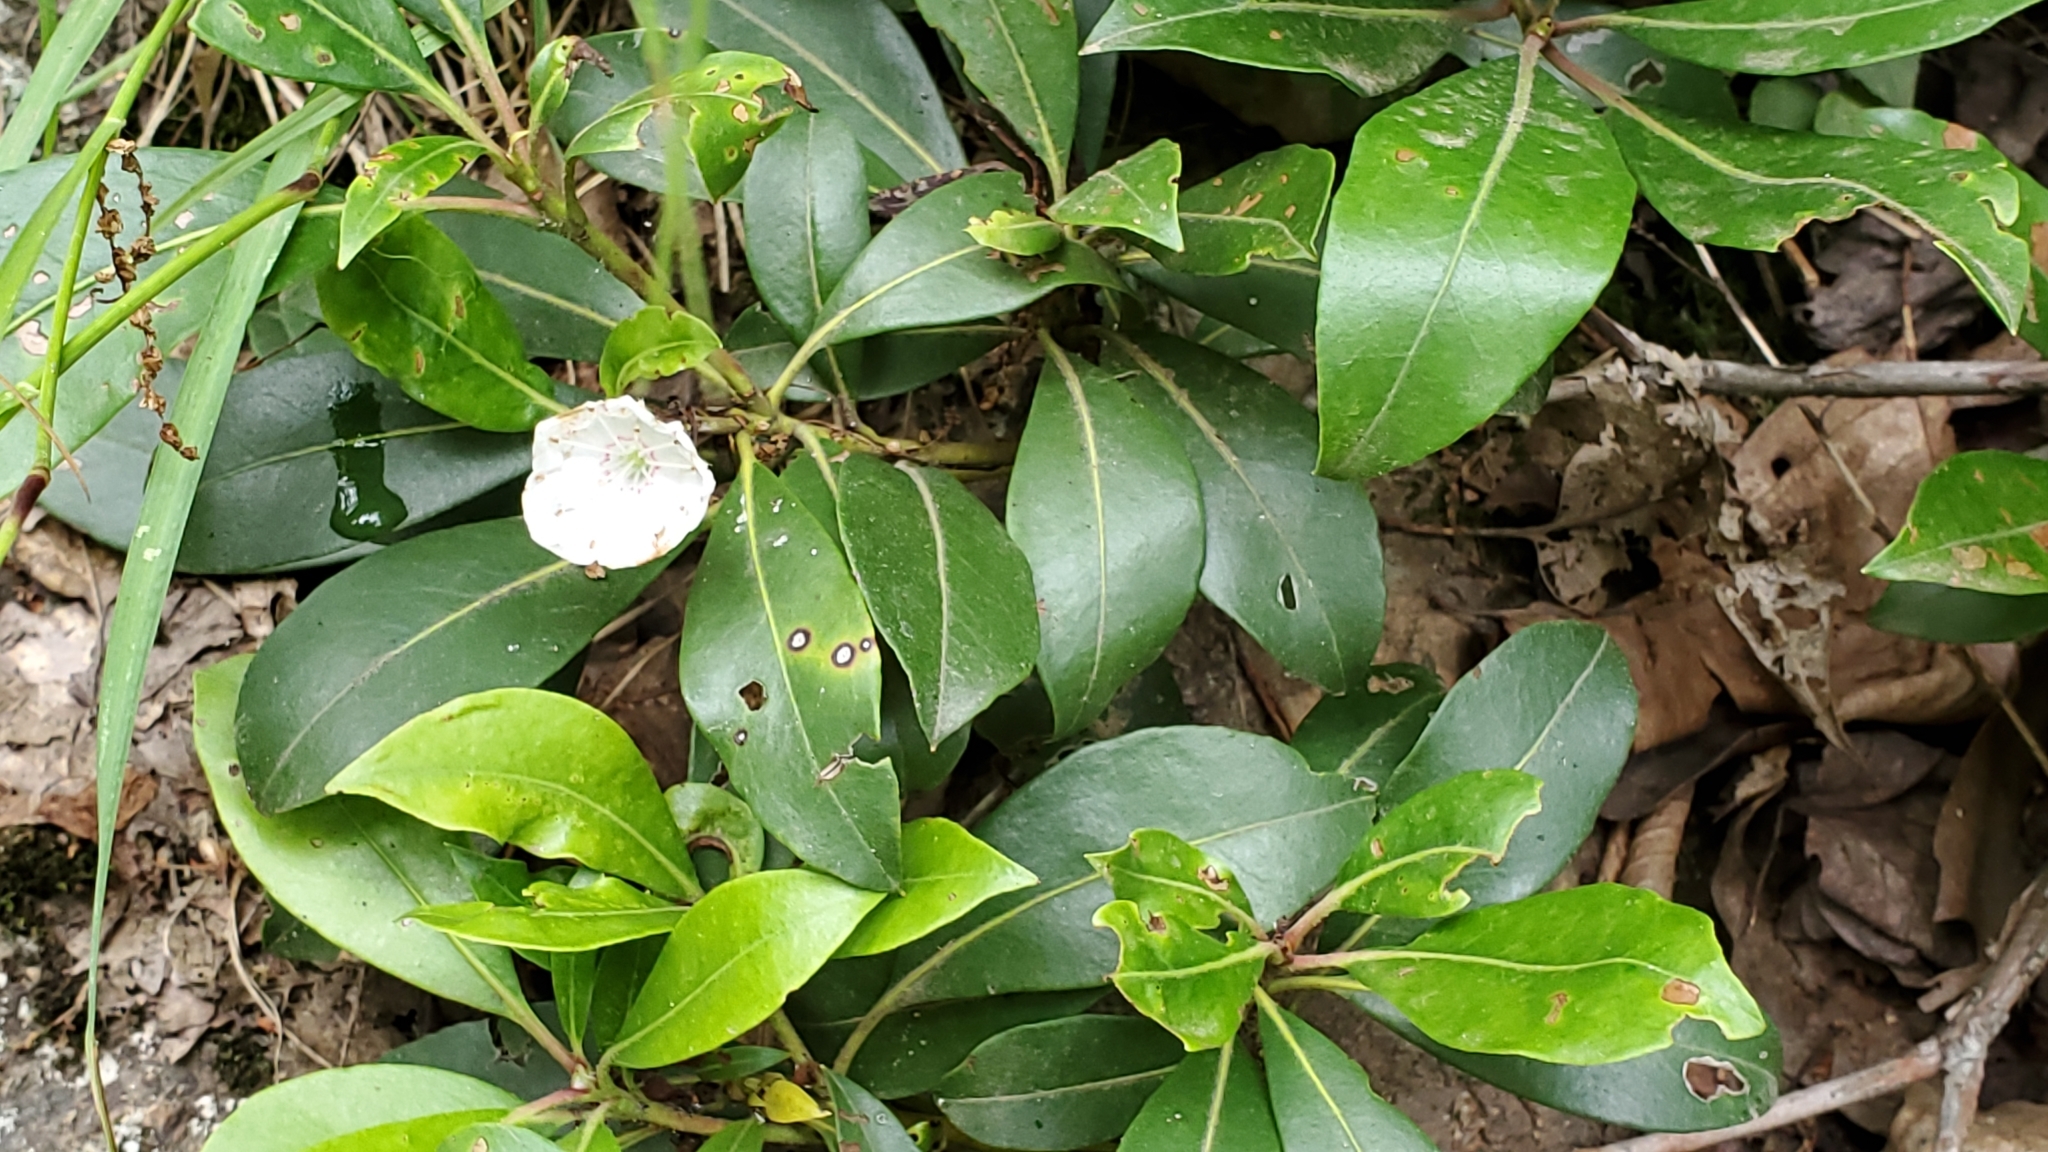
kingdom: Plantae
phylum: Tracheophyta
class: Magnoliopsida
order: Ericales
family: Ericaceae
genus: Kalmia
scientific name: Kalmia latifolia
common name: Mountain-laurel
